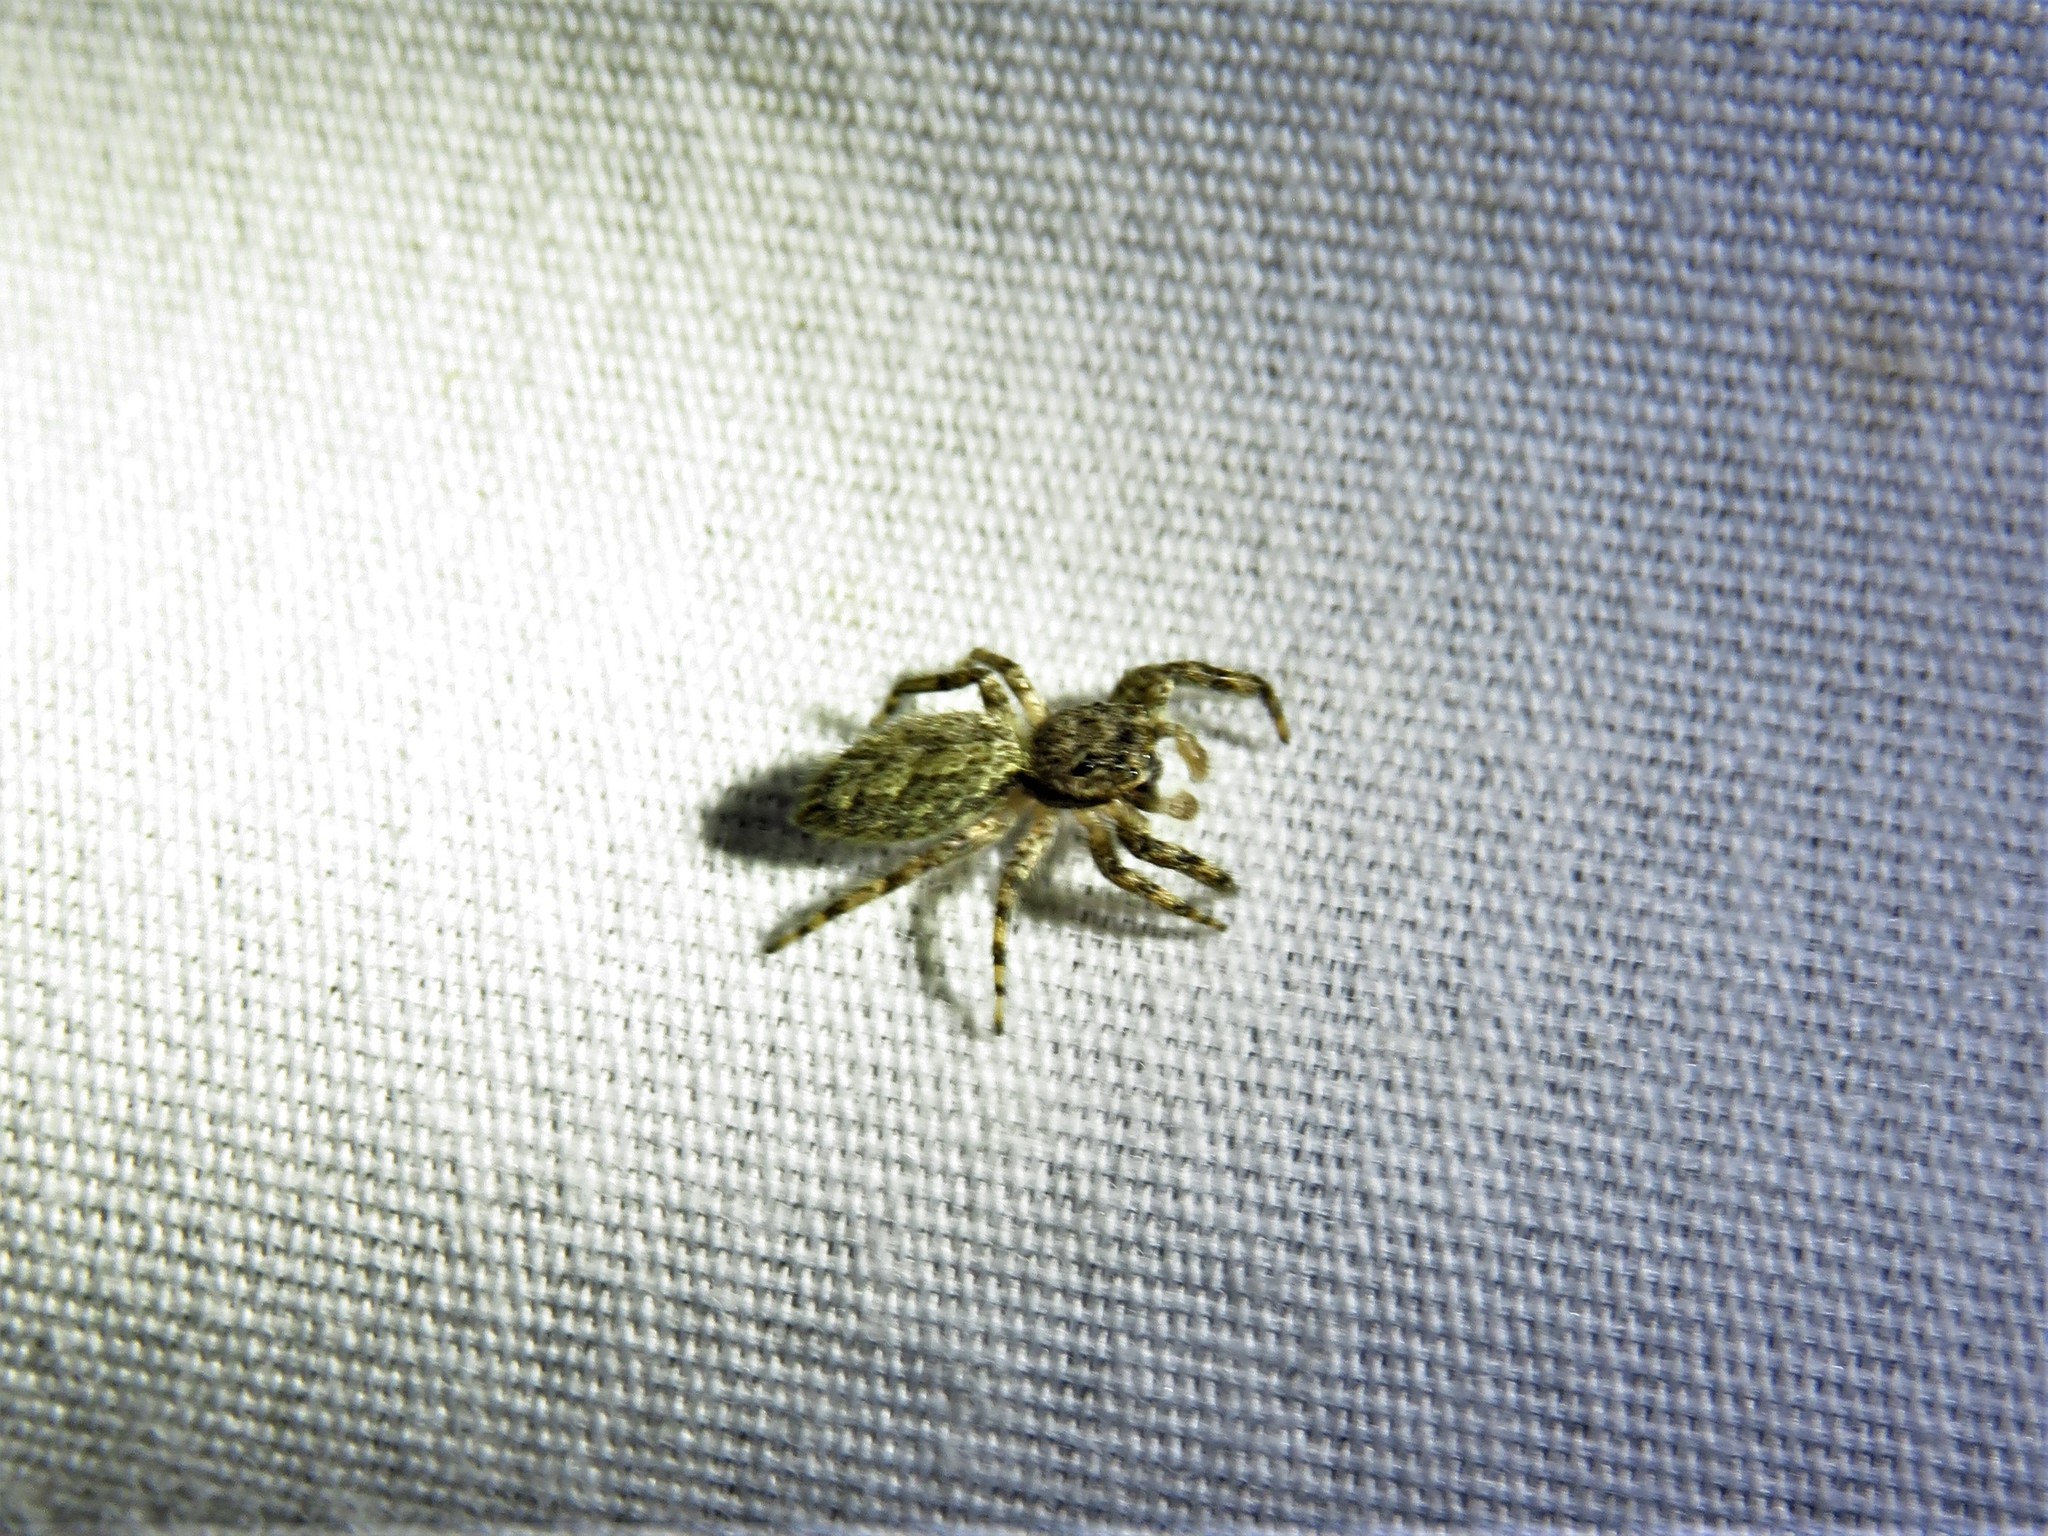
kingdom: Animalia
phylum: Arthropoda
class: Arachnida
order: Araneae
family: Salticidae
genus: Platycryptus
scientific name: Platycryptus undatus
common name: Tan jumping spider
